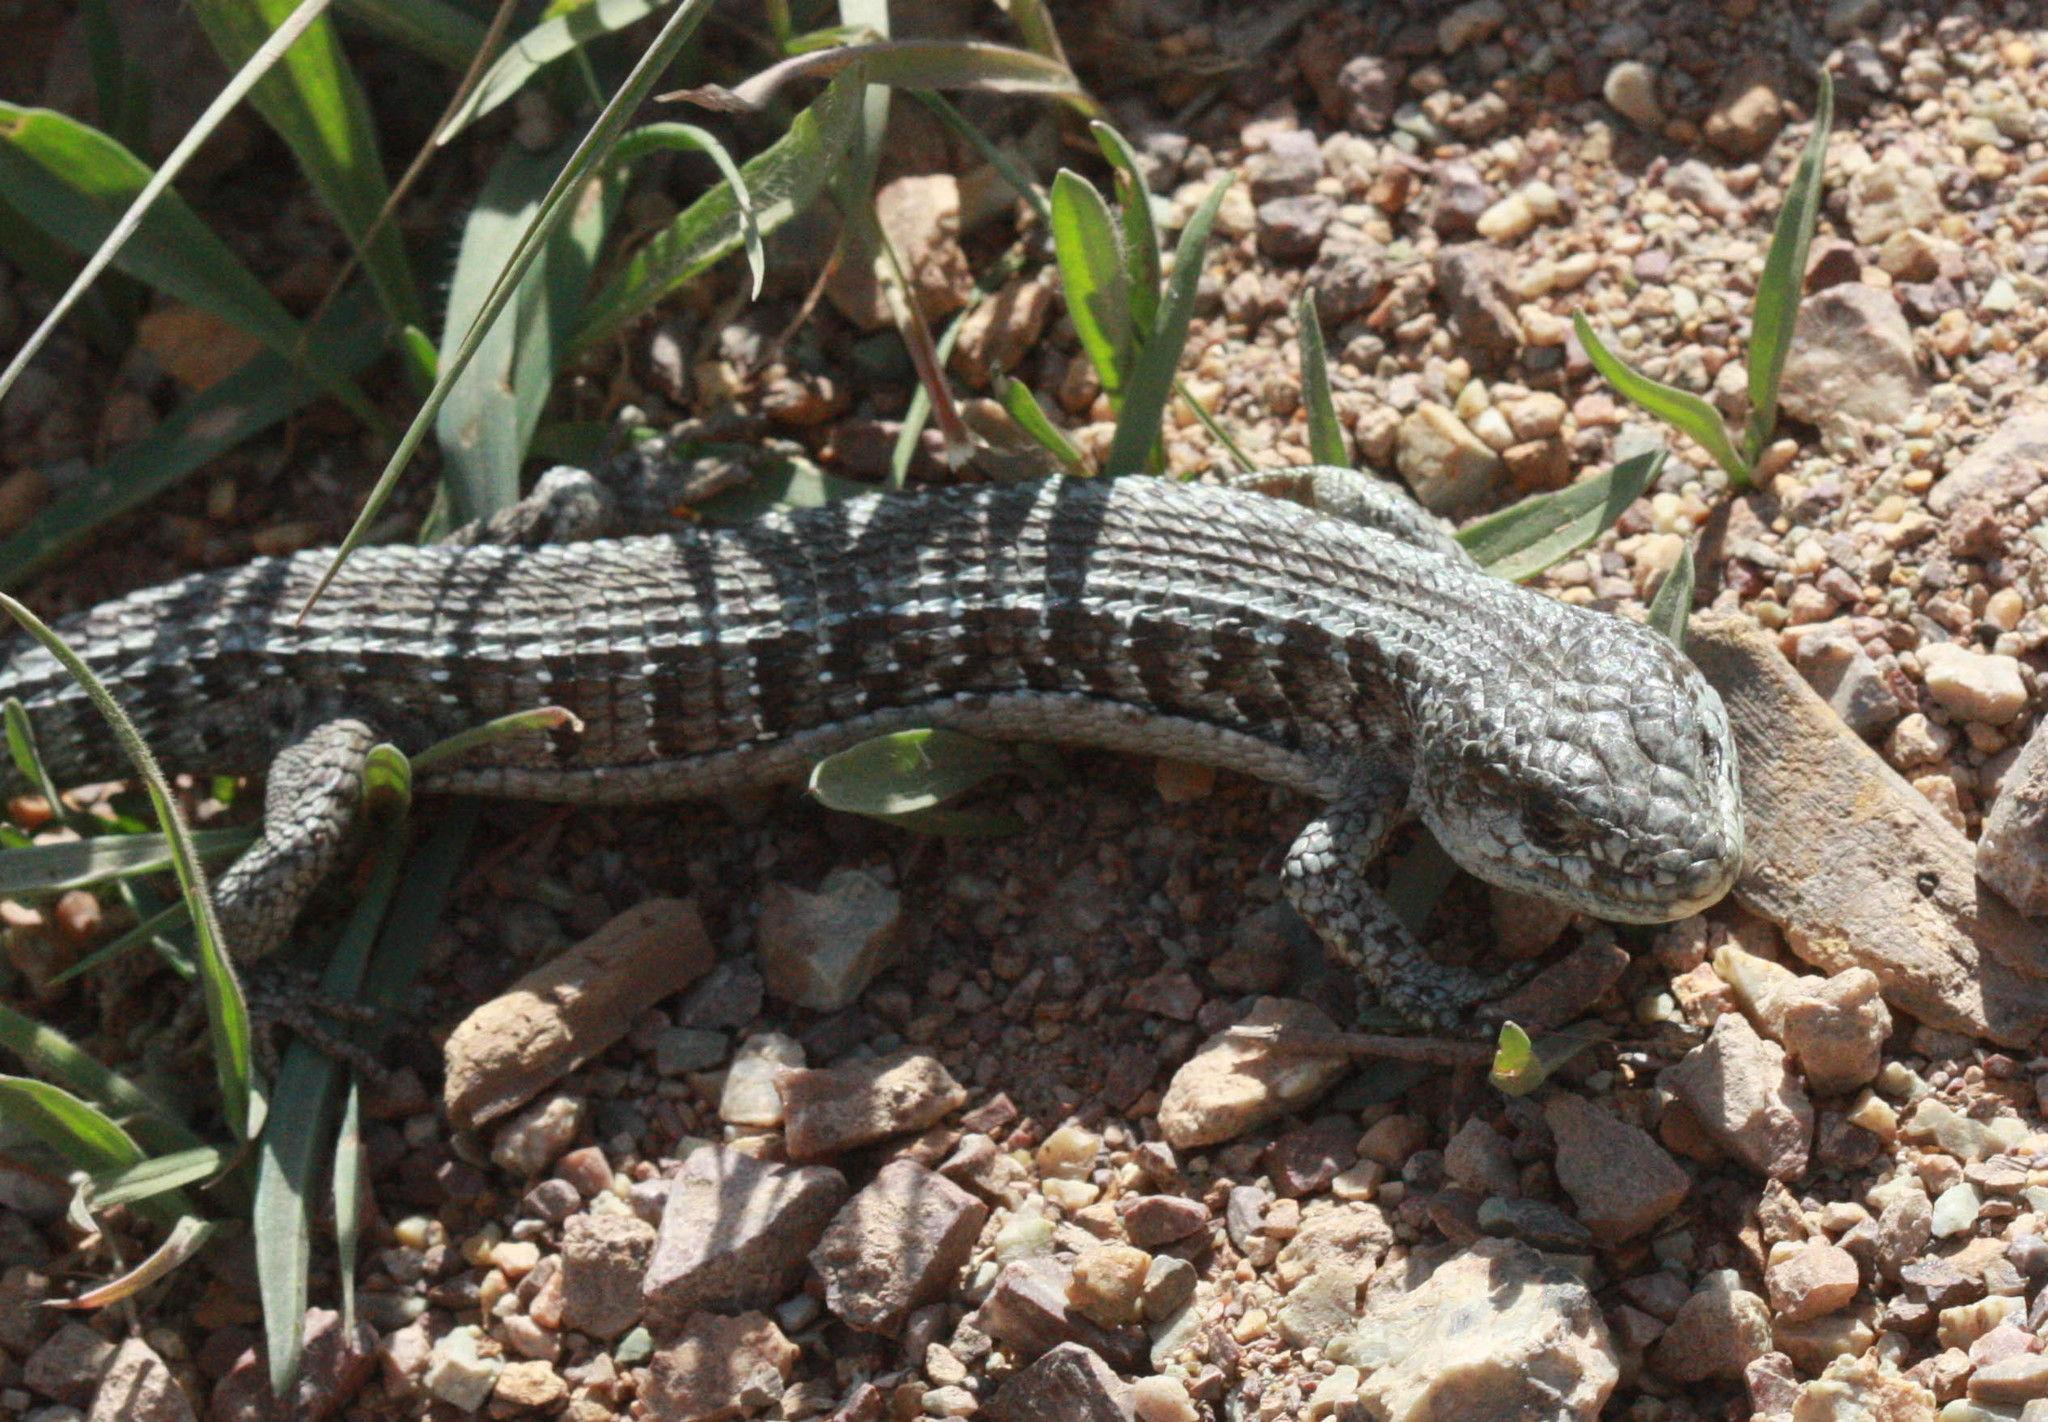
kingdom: Animalia
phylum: Chordata
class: Squamata
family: Anguidae
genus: Elgaria
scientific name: Elgaria coerulea
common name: Northern alligator lizard
